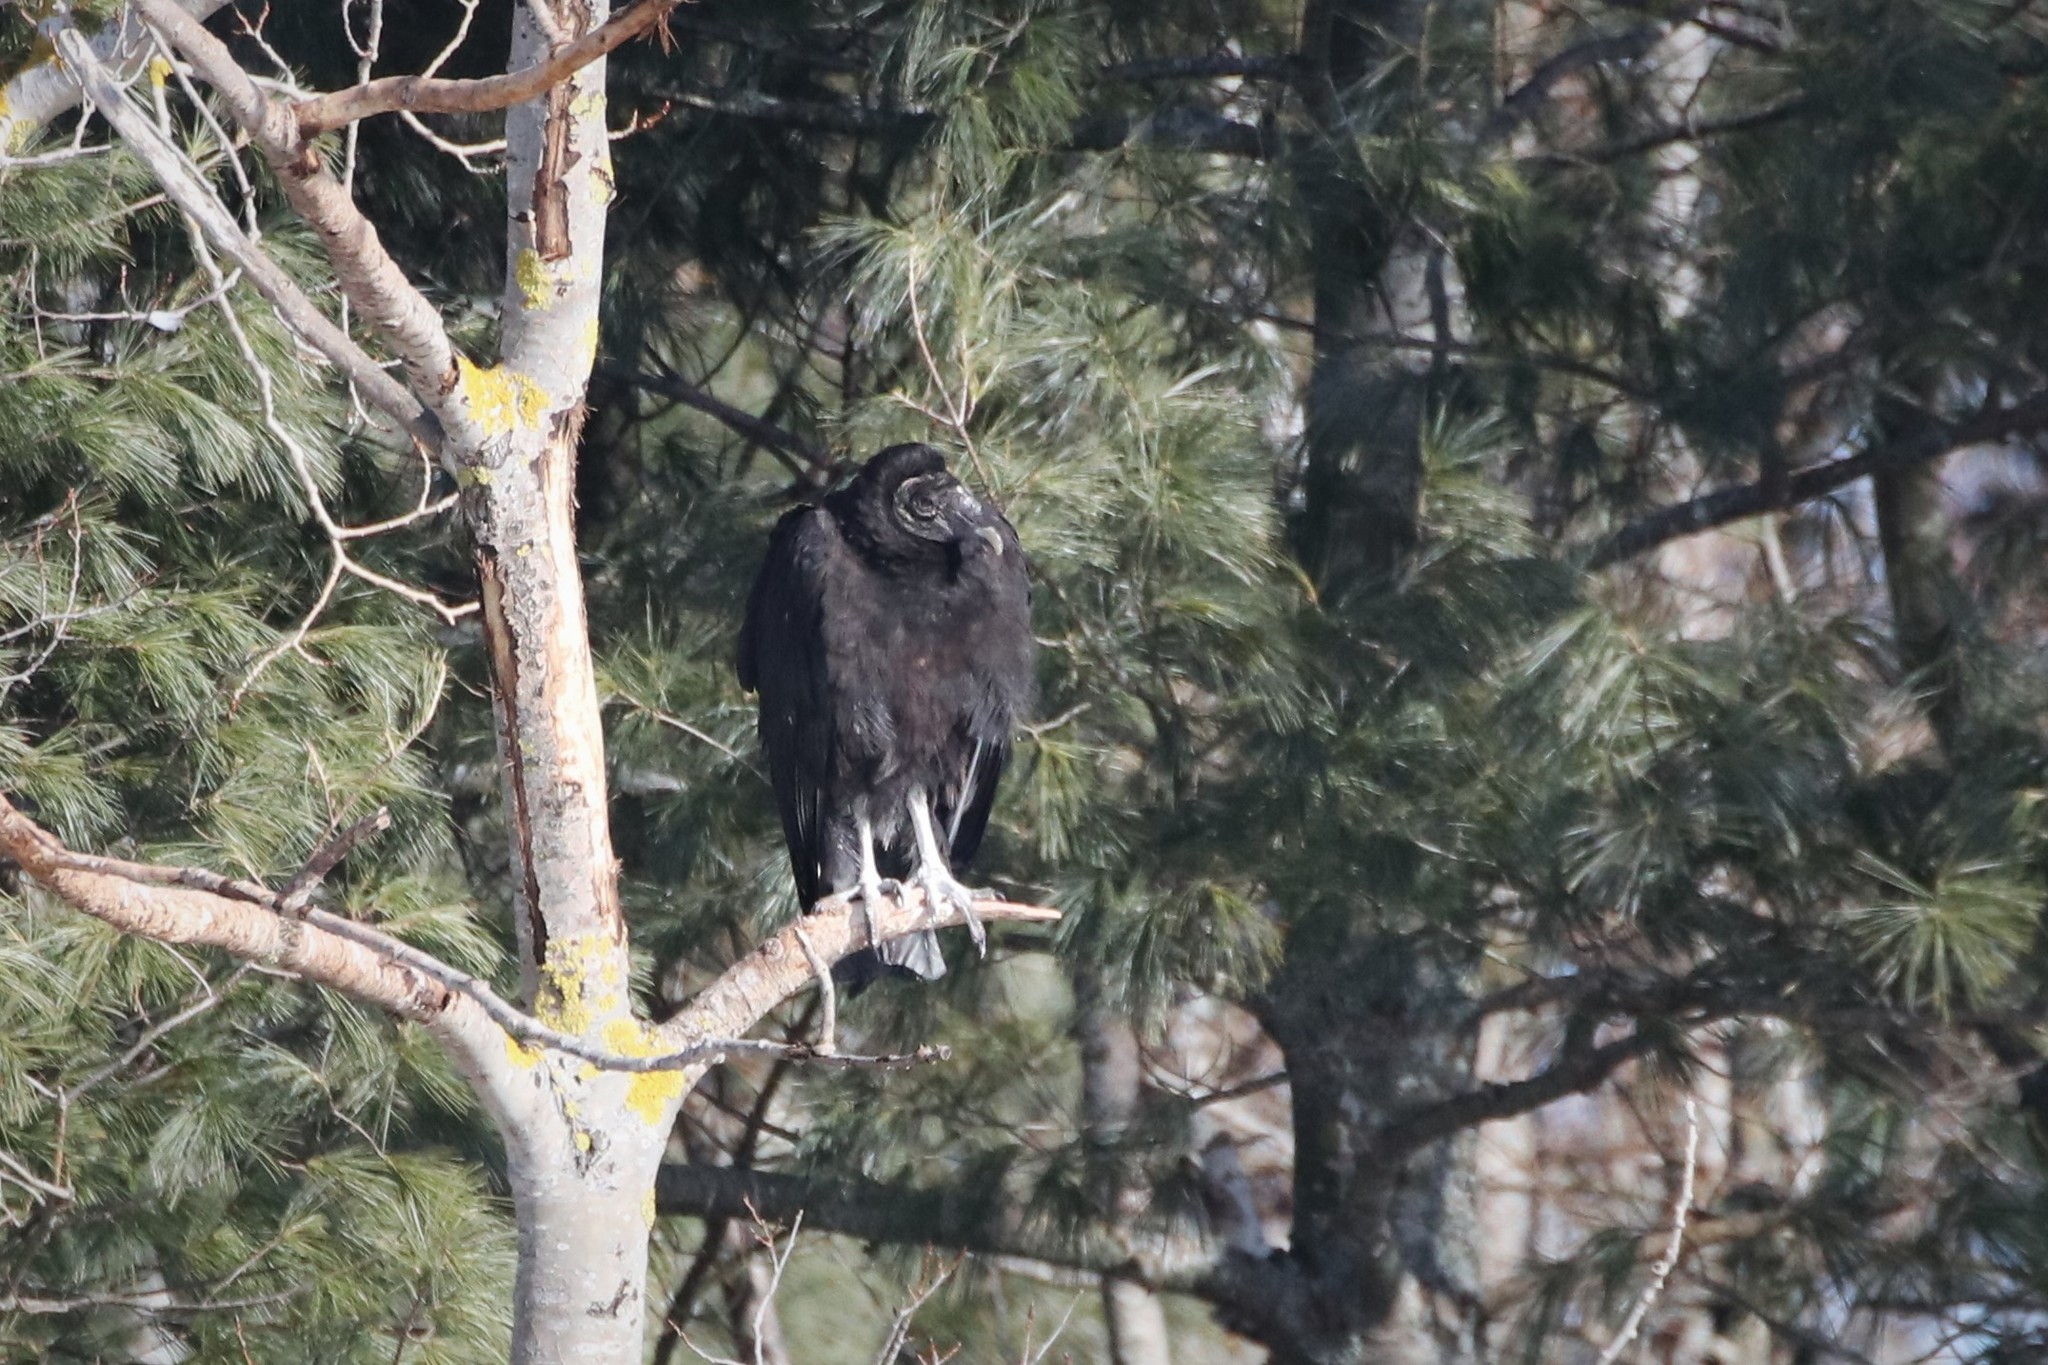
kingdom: Animalia
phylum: Chordata
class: Aves
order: Accipitriformes
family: Cathartidae
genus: Coragyps
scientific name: Coragyps atratus
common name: Black vulture
